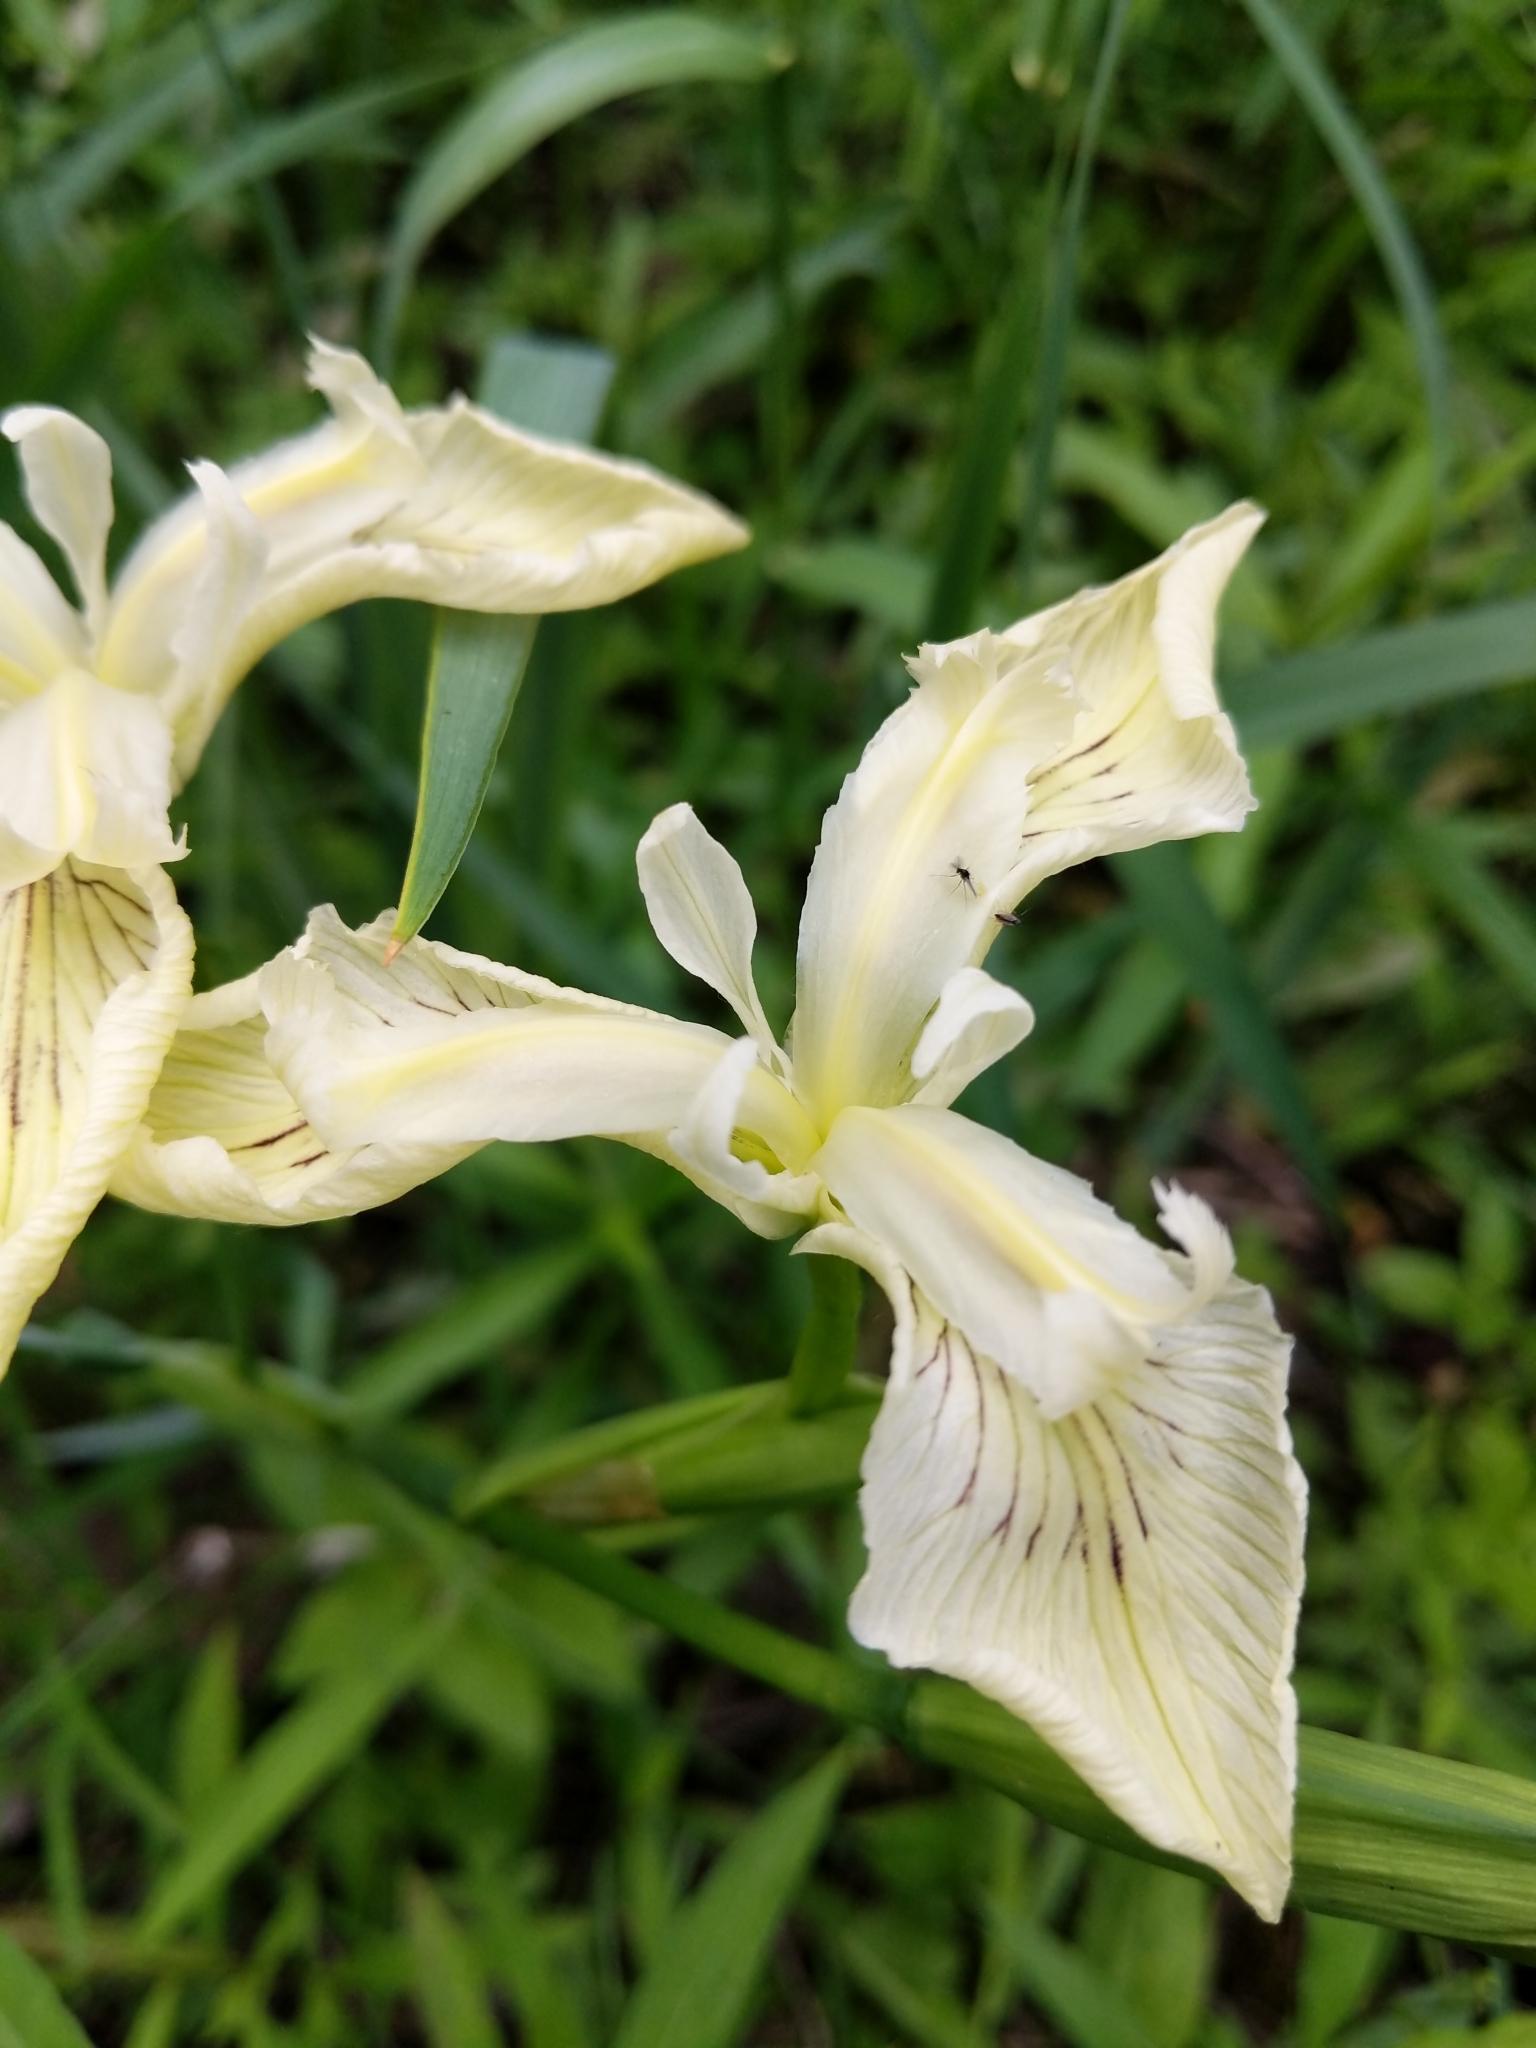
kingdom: Plantae
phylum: Tracheophyta
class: Liliopsida
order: Asparagales
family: Iridaceae
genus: Iris
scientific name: Iris pseudacorus
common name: Yellow flag
